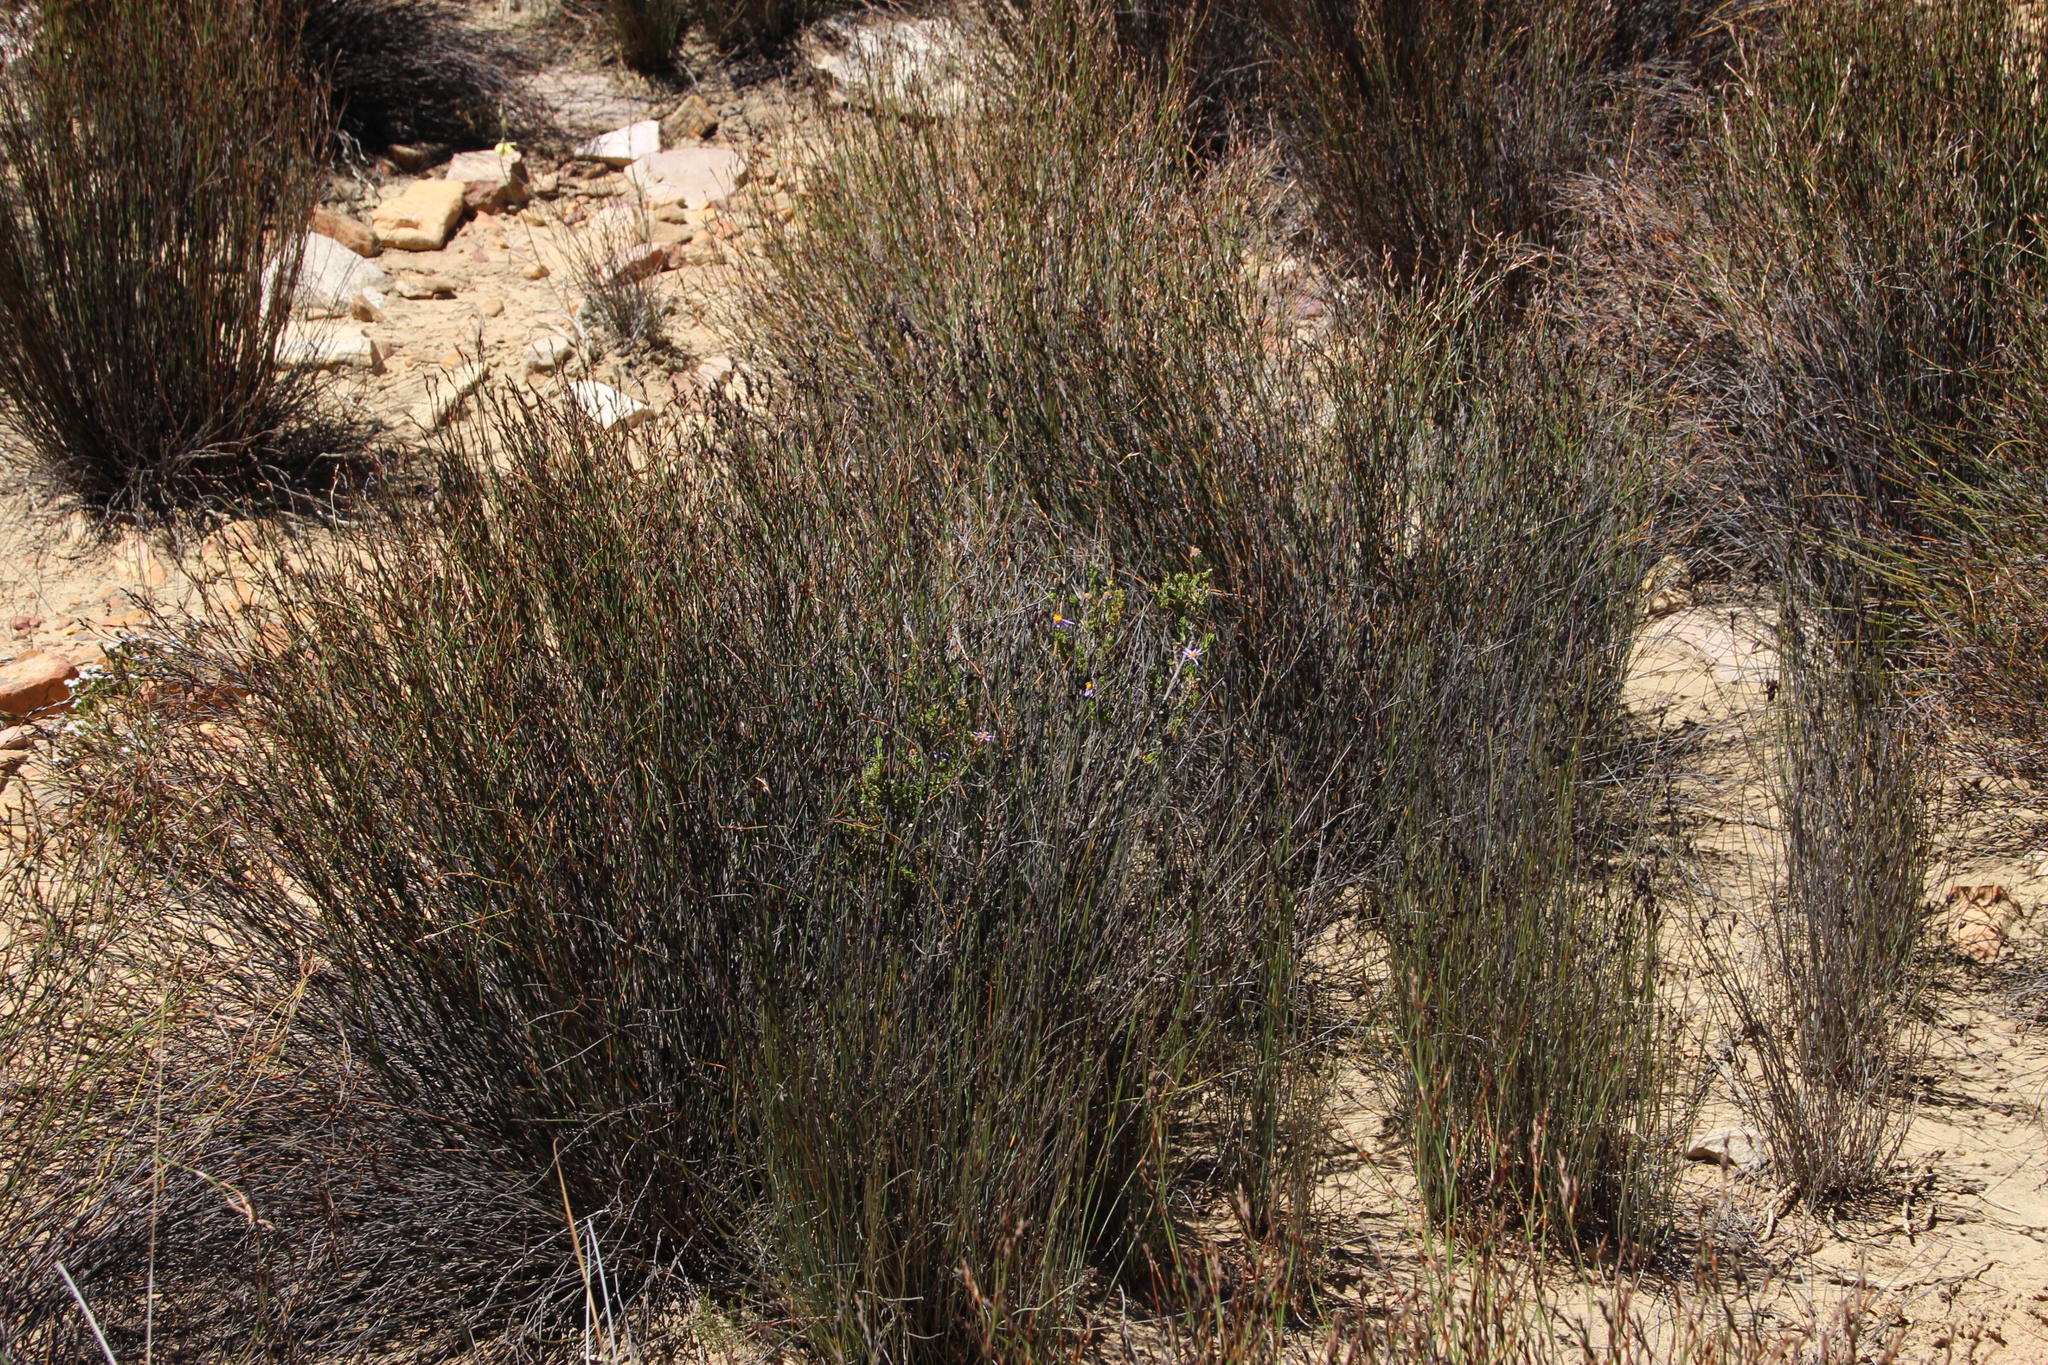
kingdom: Plantae
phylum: Tracheophyta
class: Magnoliopsida
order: Asterales
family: Asteraceae
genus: Felicia
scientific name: Felicia filifolia
